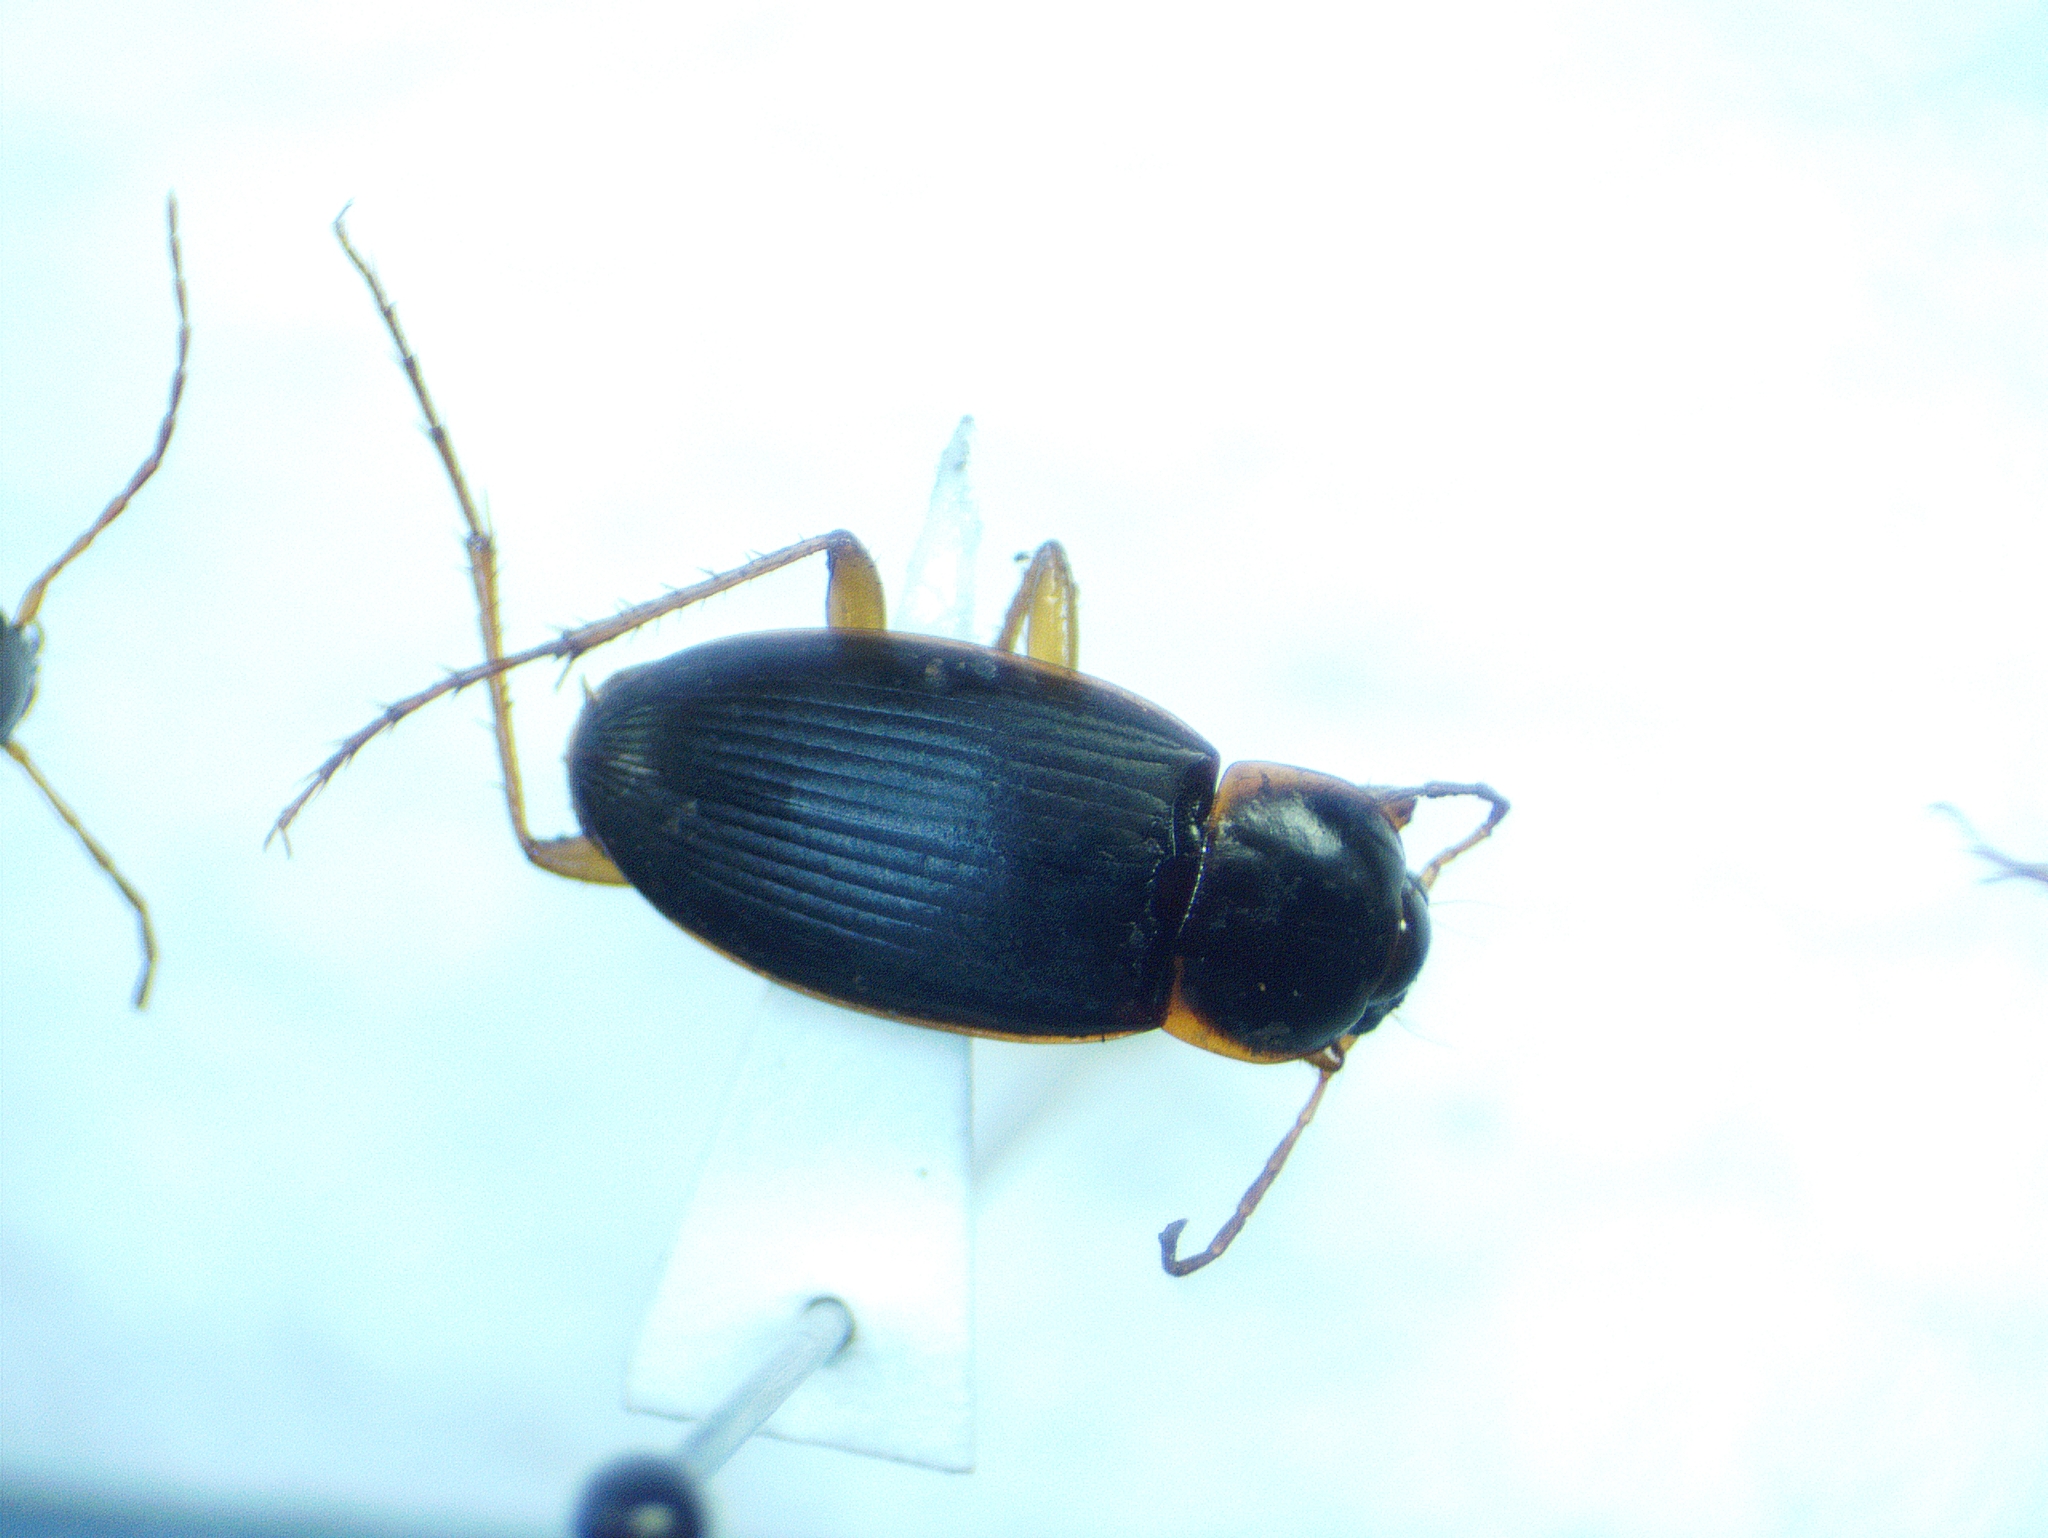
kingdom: Animalia
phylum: Arthropoda
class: Insecta
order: Coleoptera
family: Carabidae
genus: Calathus
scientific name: Calathus opaculus
